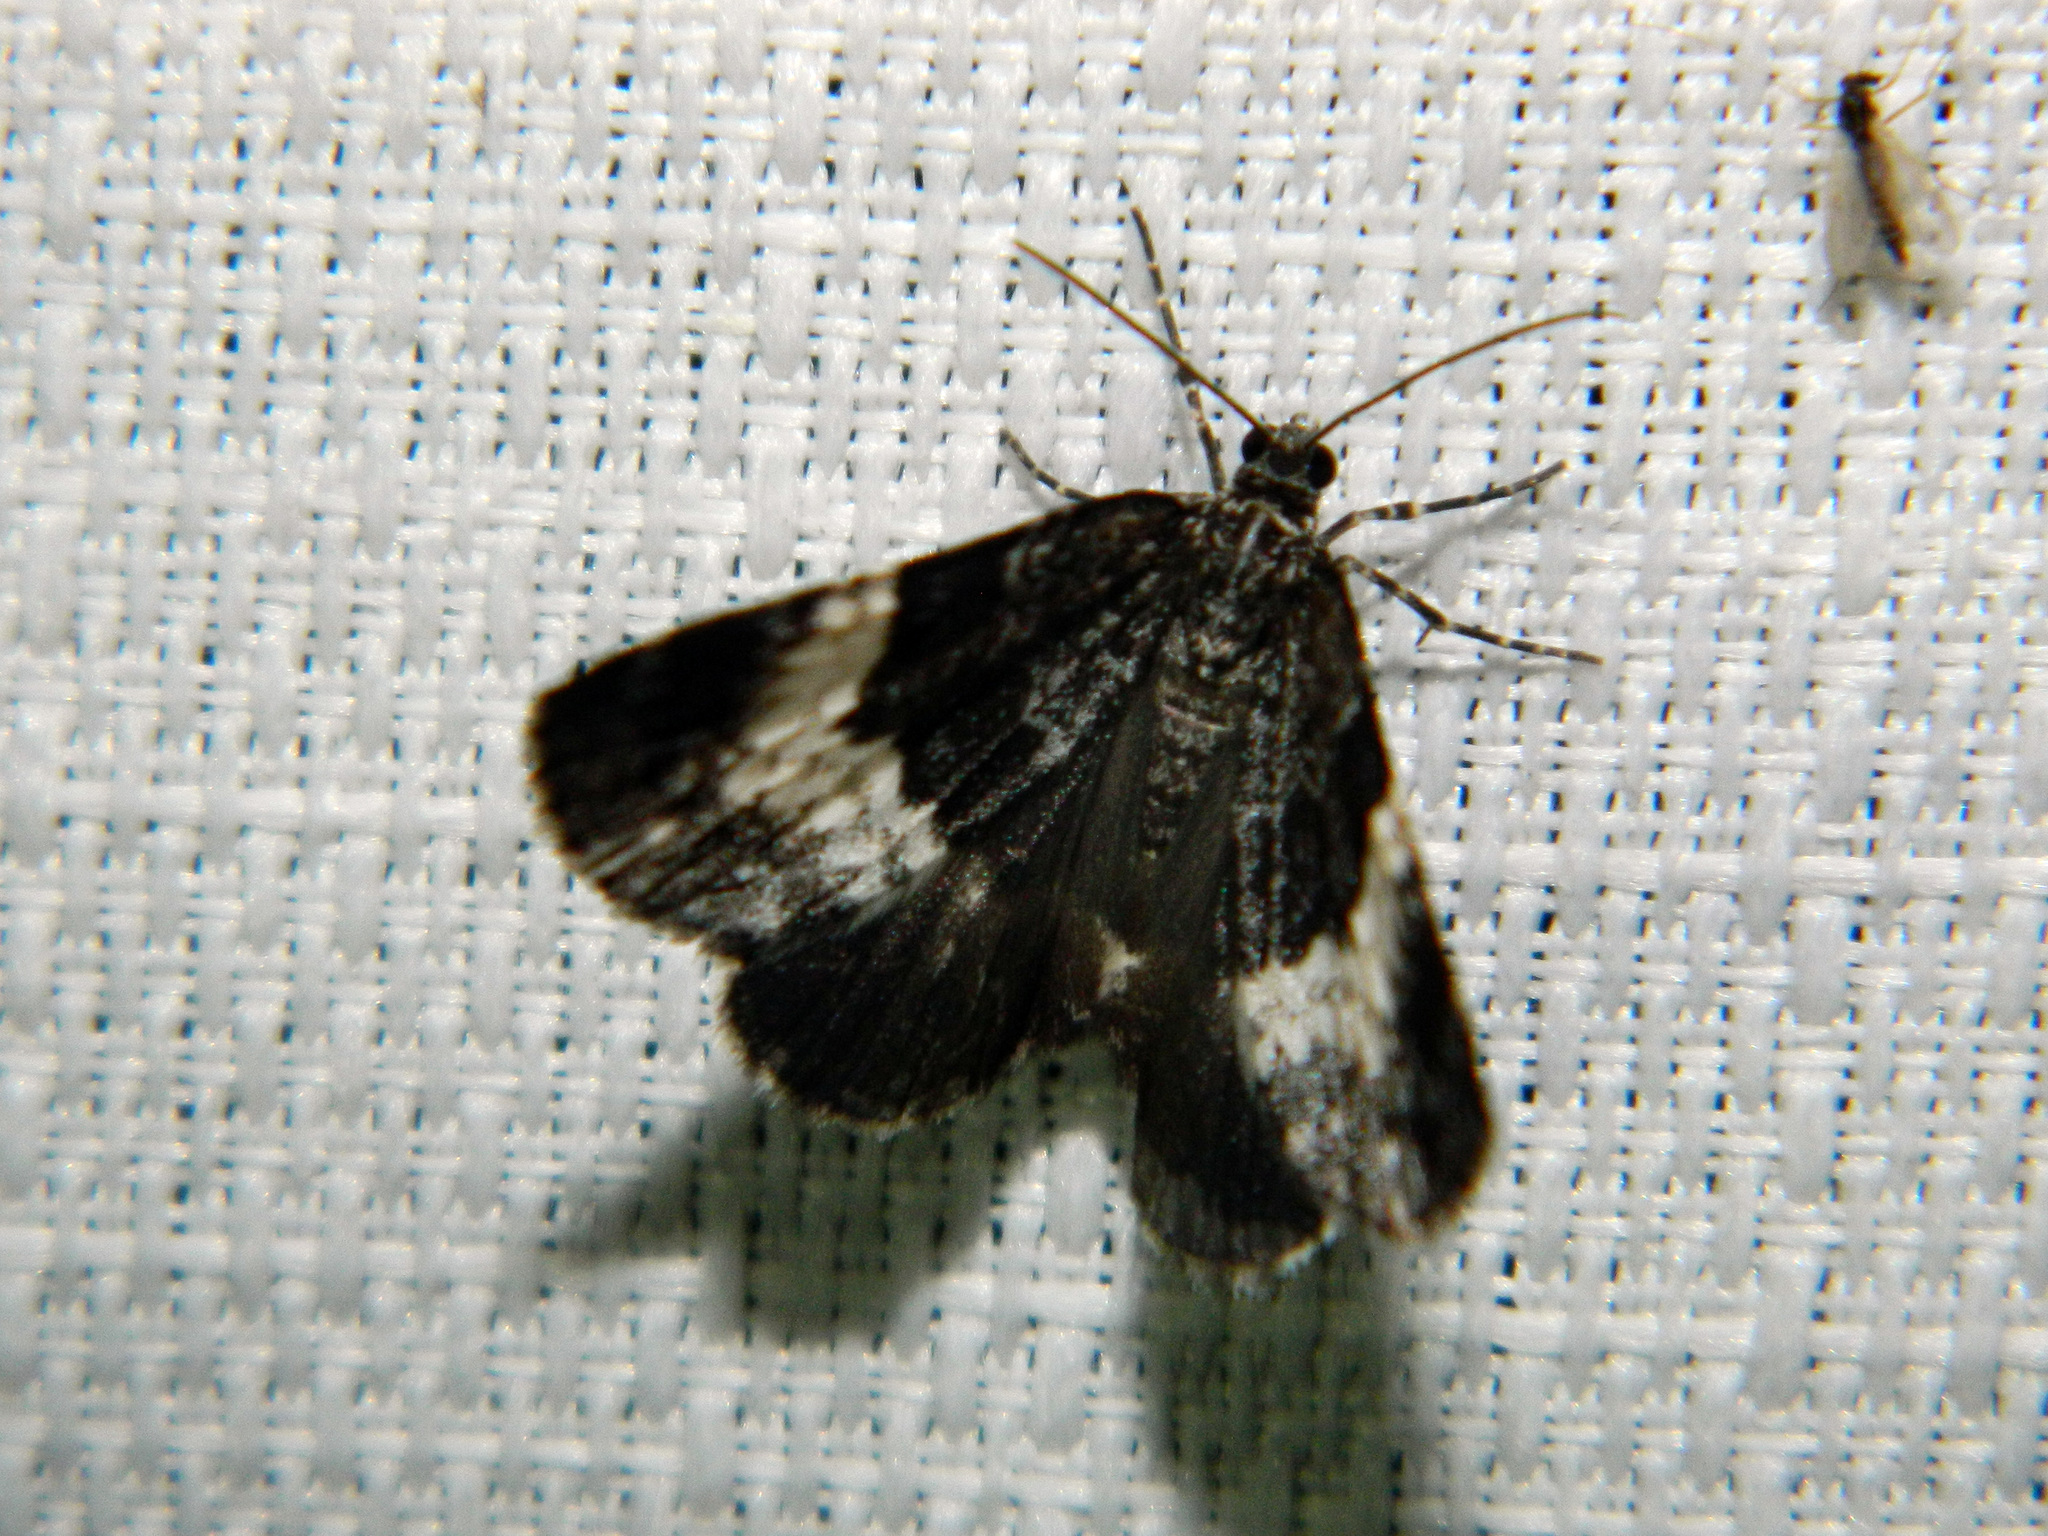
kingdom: Animalia
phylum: Arthropoda
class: Insecta
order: Lepidoptera
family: Geometridae
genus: Spargania
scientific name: Spargania luctuata
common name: White-banded carpet
